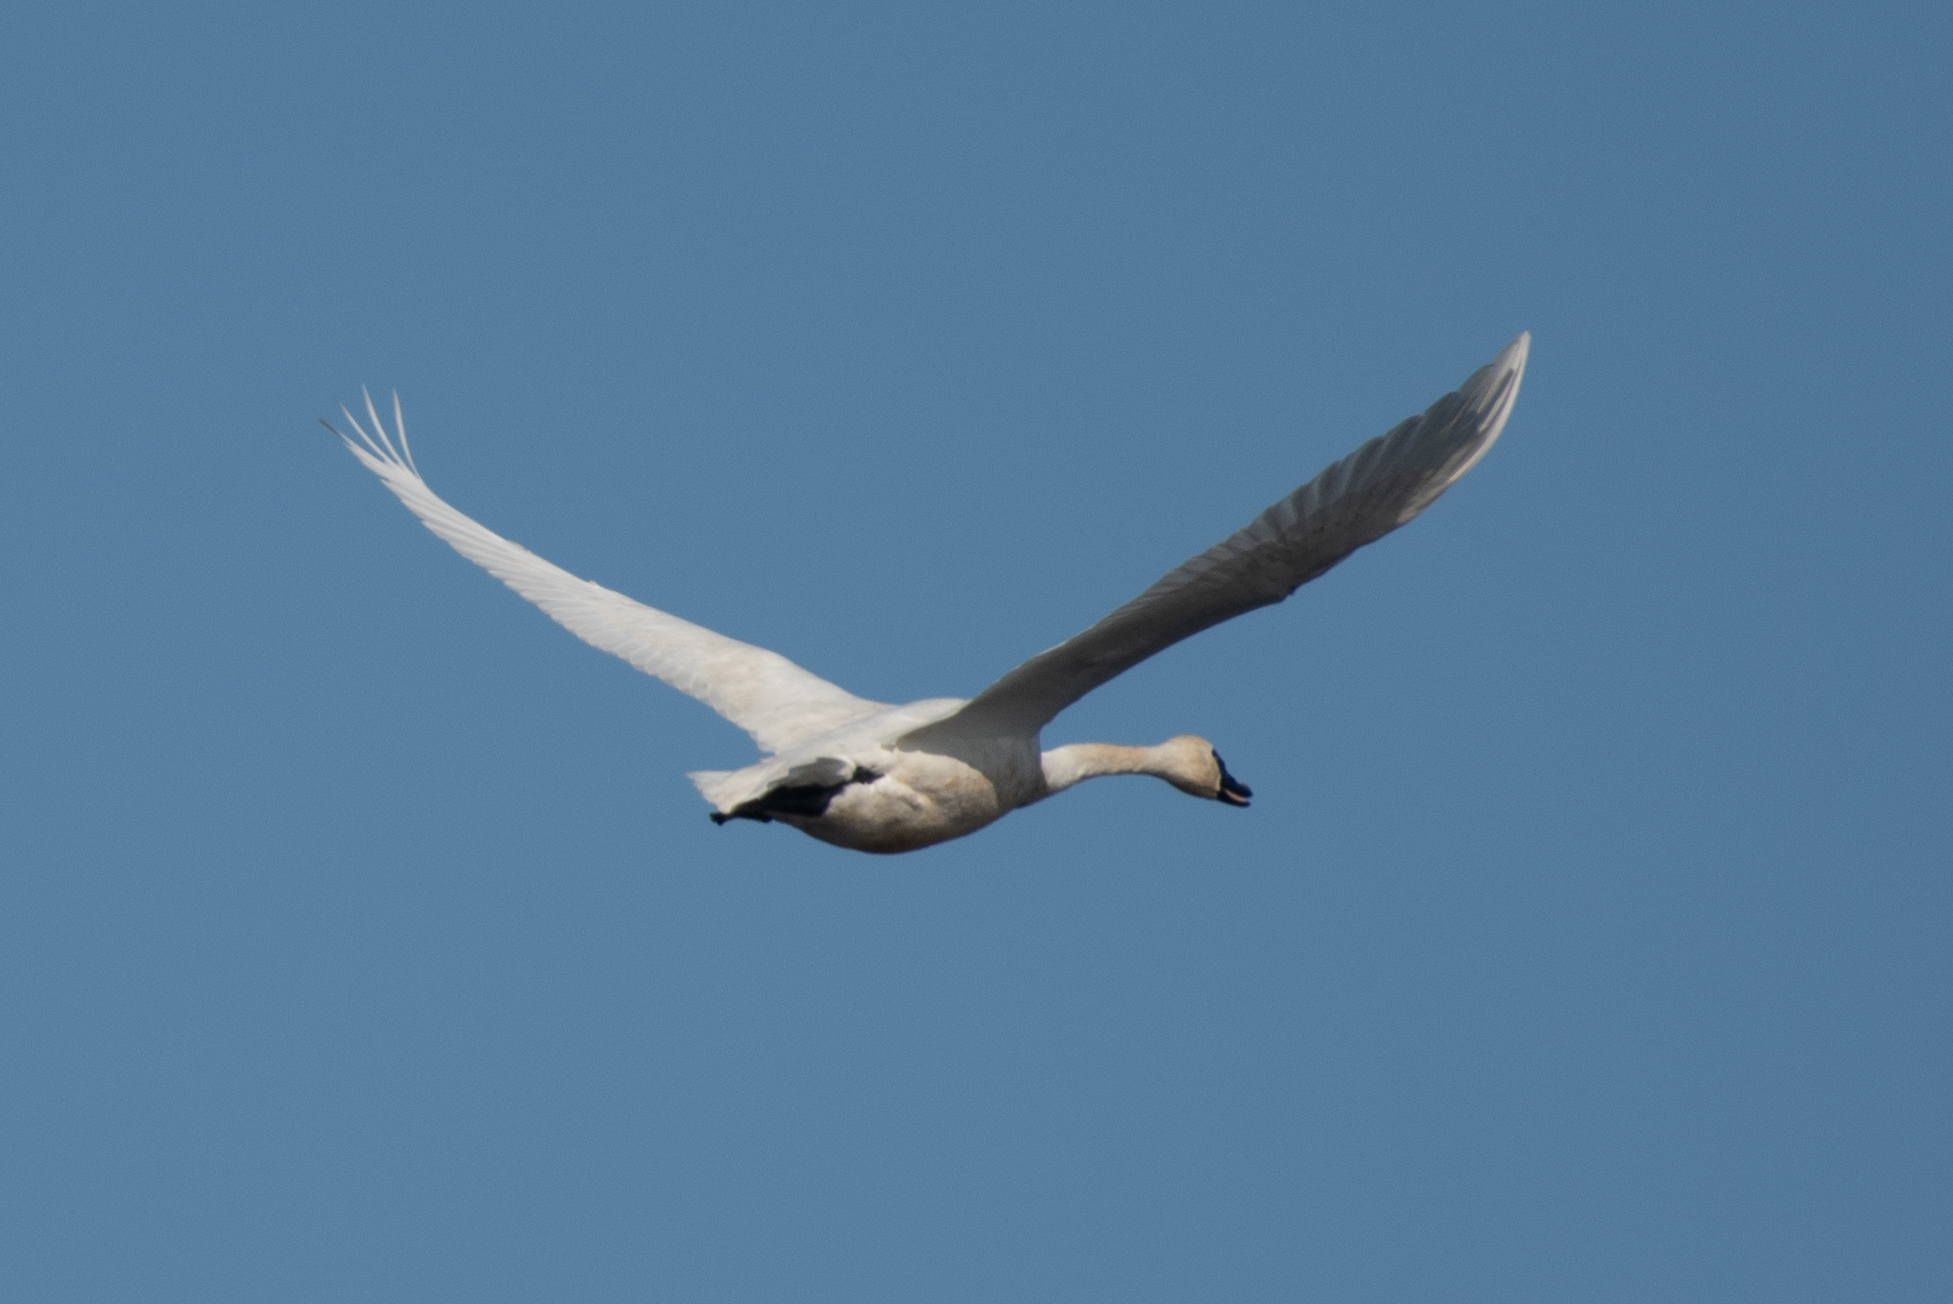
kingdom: Animalia
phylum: Chordata
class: Aves
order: Anseriformes
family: Anatidae
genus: Cygnus
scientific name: Cygnus columbianus
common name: Tundra swan
